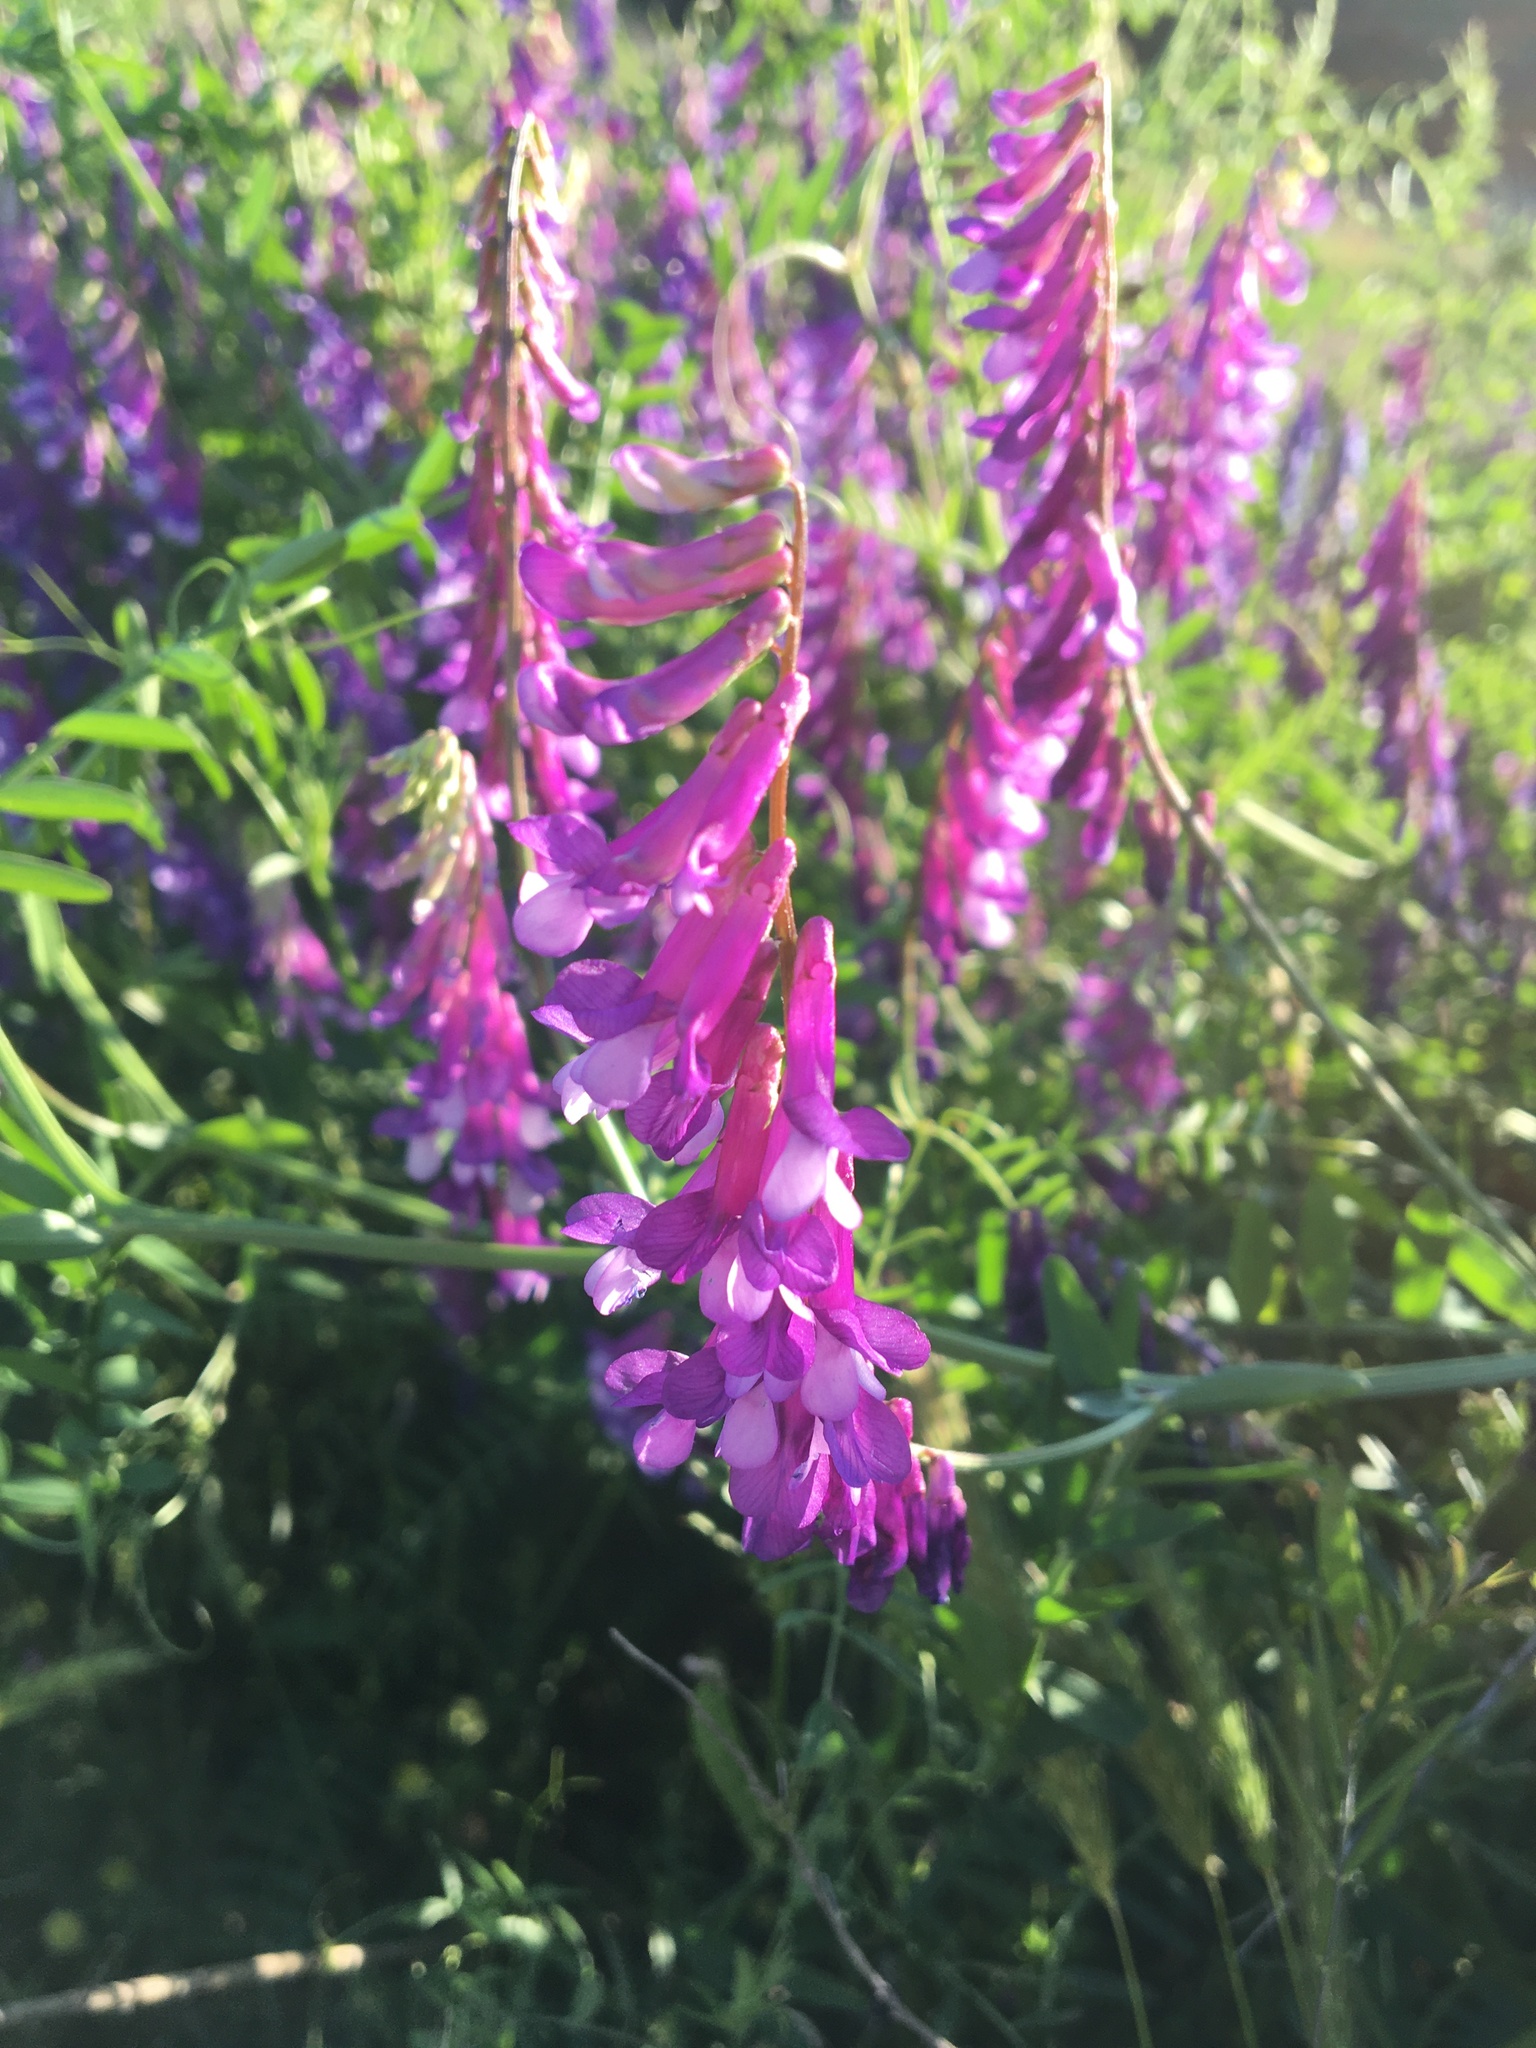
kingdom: Plantae
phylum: Tracheophyta
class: Magnoliopsida
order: Fabales
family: Fabaceae
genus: Vicia
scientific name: Vicia villosa
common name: Fodder vetch
